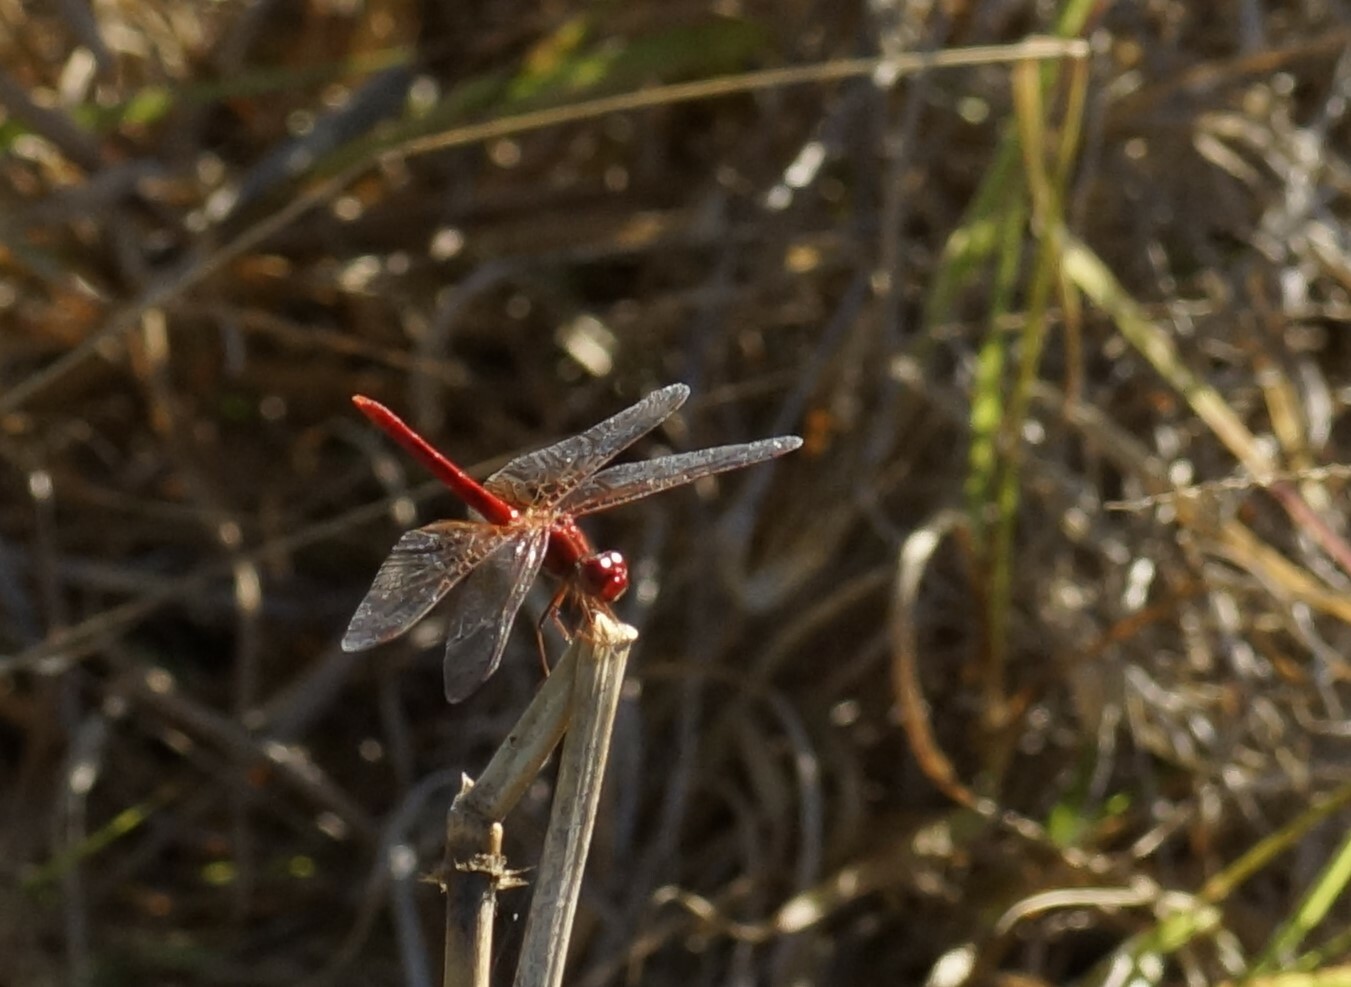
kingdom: Animalia
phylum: Arthropoda
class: Insecta
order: Odonata
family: Libellulidae
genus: Diplacodes
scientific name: Diplacodes haematodes
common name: Scarlet percher
